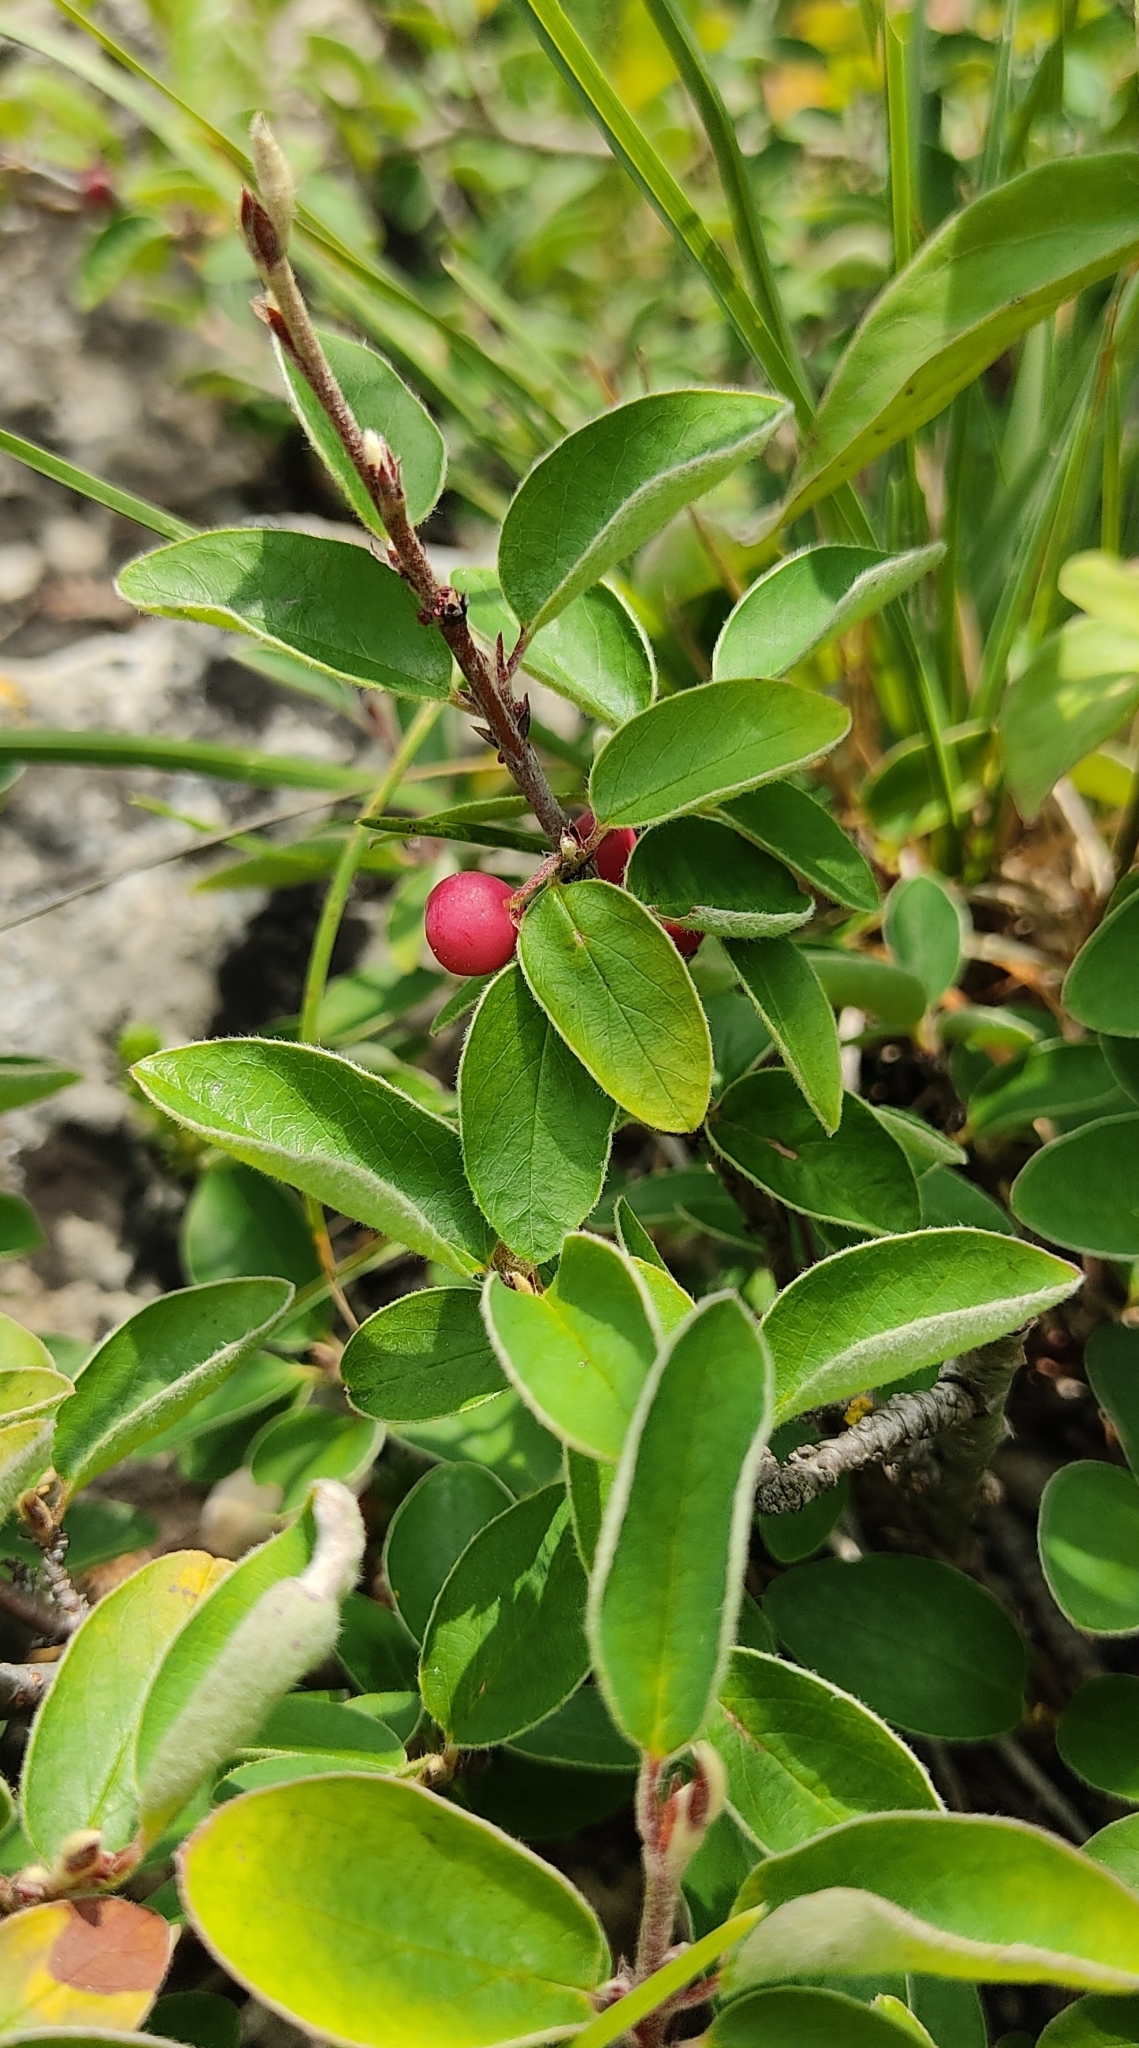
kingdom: Plantae
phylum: Tracheophyta
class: Magnoliopsida
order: Rosales
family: Rosaceae
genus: Cotoneaster
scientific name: Cotoneaster integerrimus
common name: Wild cotoneaster
